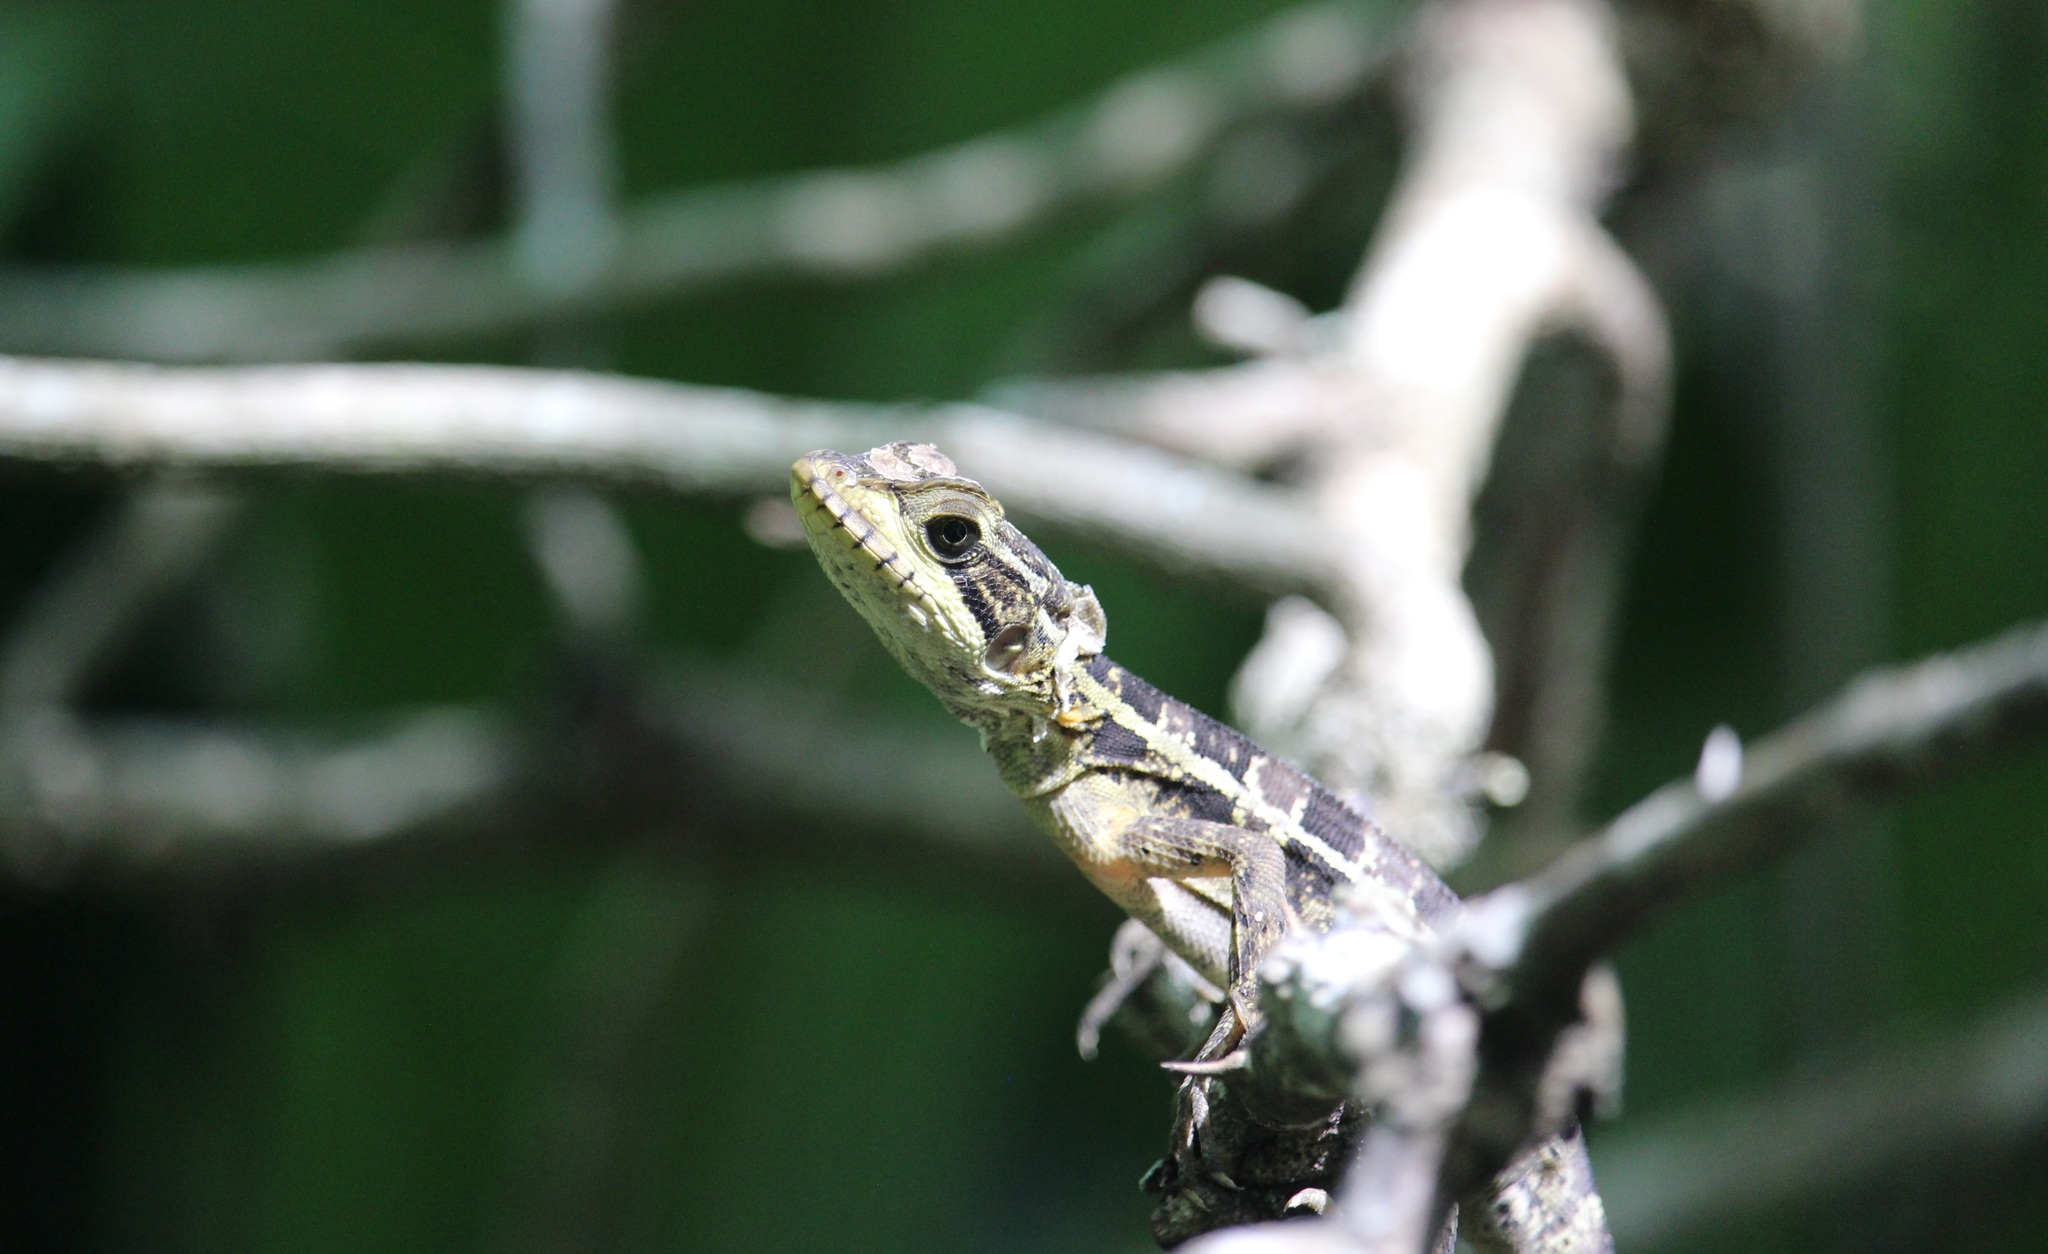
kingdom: Animalia
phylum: Chordata
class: Squamata
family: Corytophanidae
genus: Basiliscus
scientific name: Basiliscus vittatus
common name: Brown basilisk
